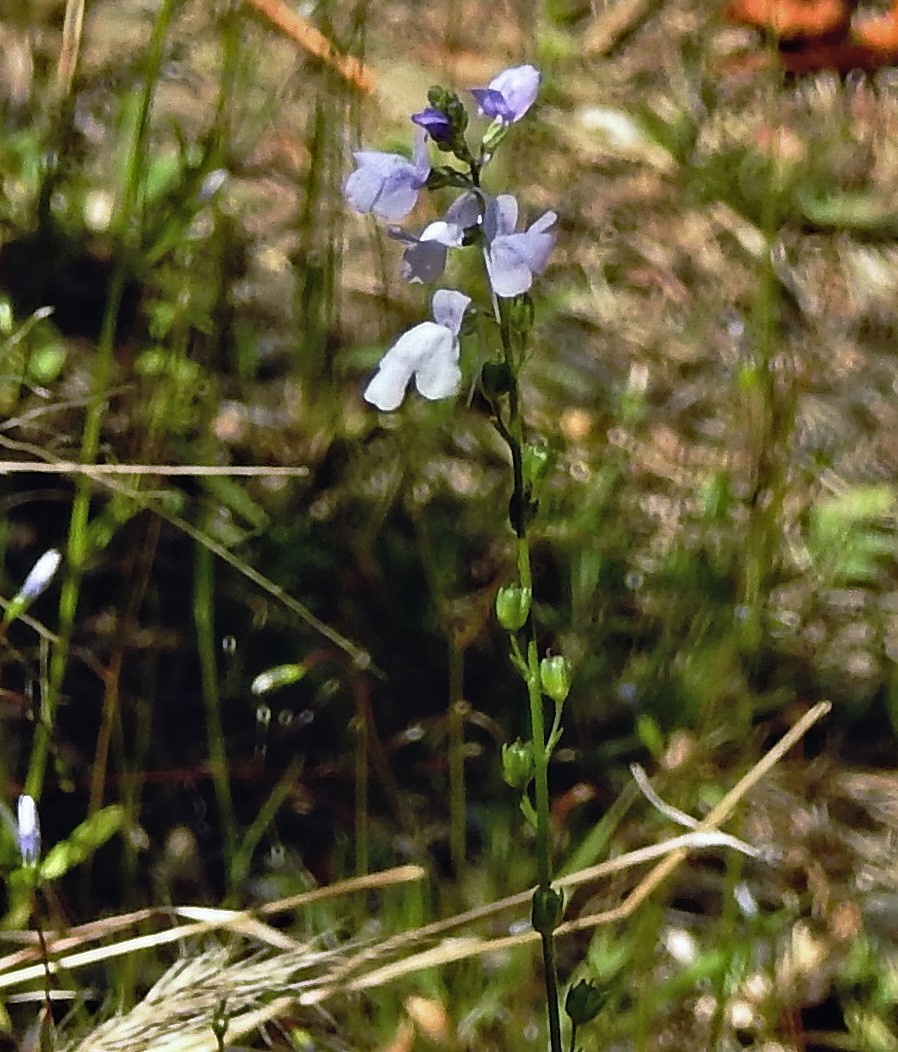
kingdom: Plantae
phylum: Tracheophyta
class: Magnoliopsida
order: Lamiales
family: Plantaginaceae
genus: Nuttallanthus
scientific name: Nuttallanthus canadensis
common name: Blue toadflax
